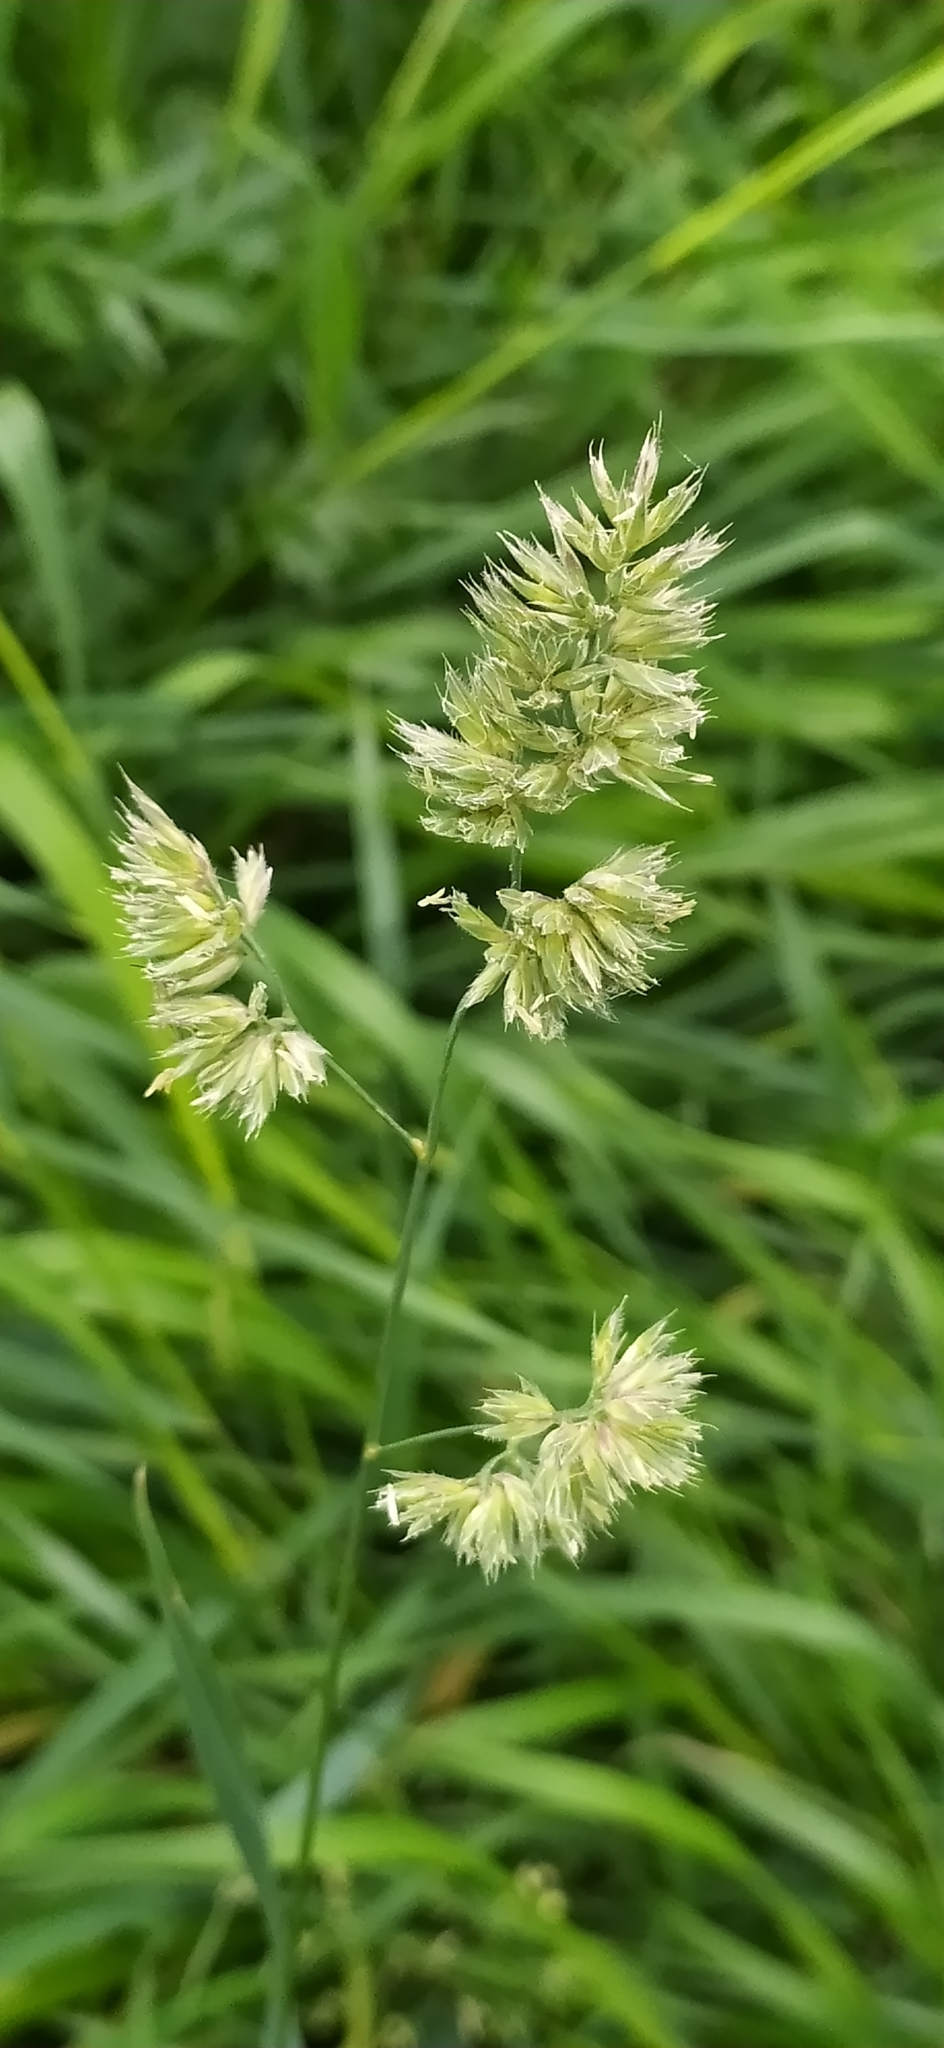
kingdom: Plantae
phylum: Tracheophyta
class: Liliopsida
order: Poales
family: Poaceae
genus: Dactylis
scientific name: Dactylis glomerata
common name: Orchardgrass
